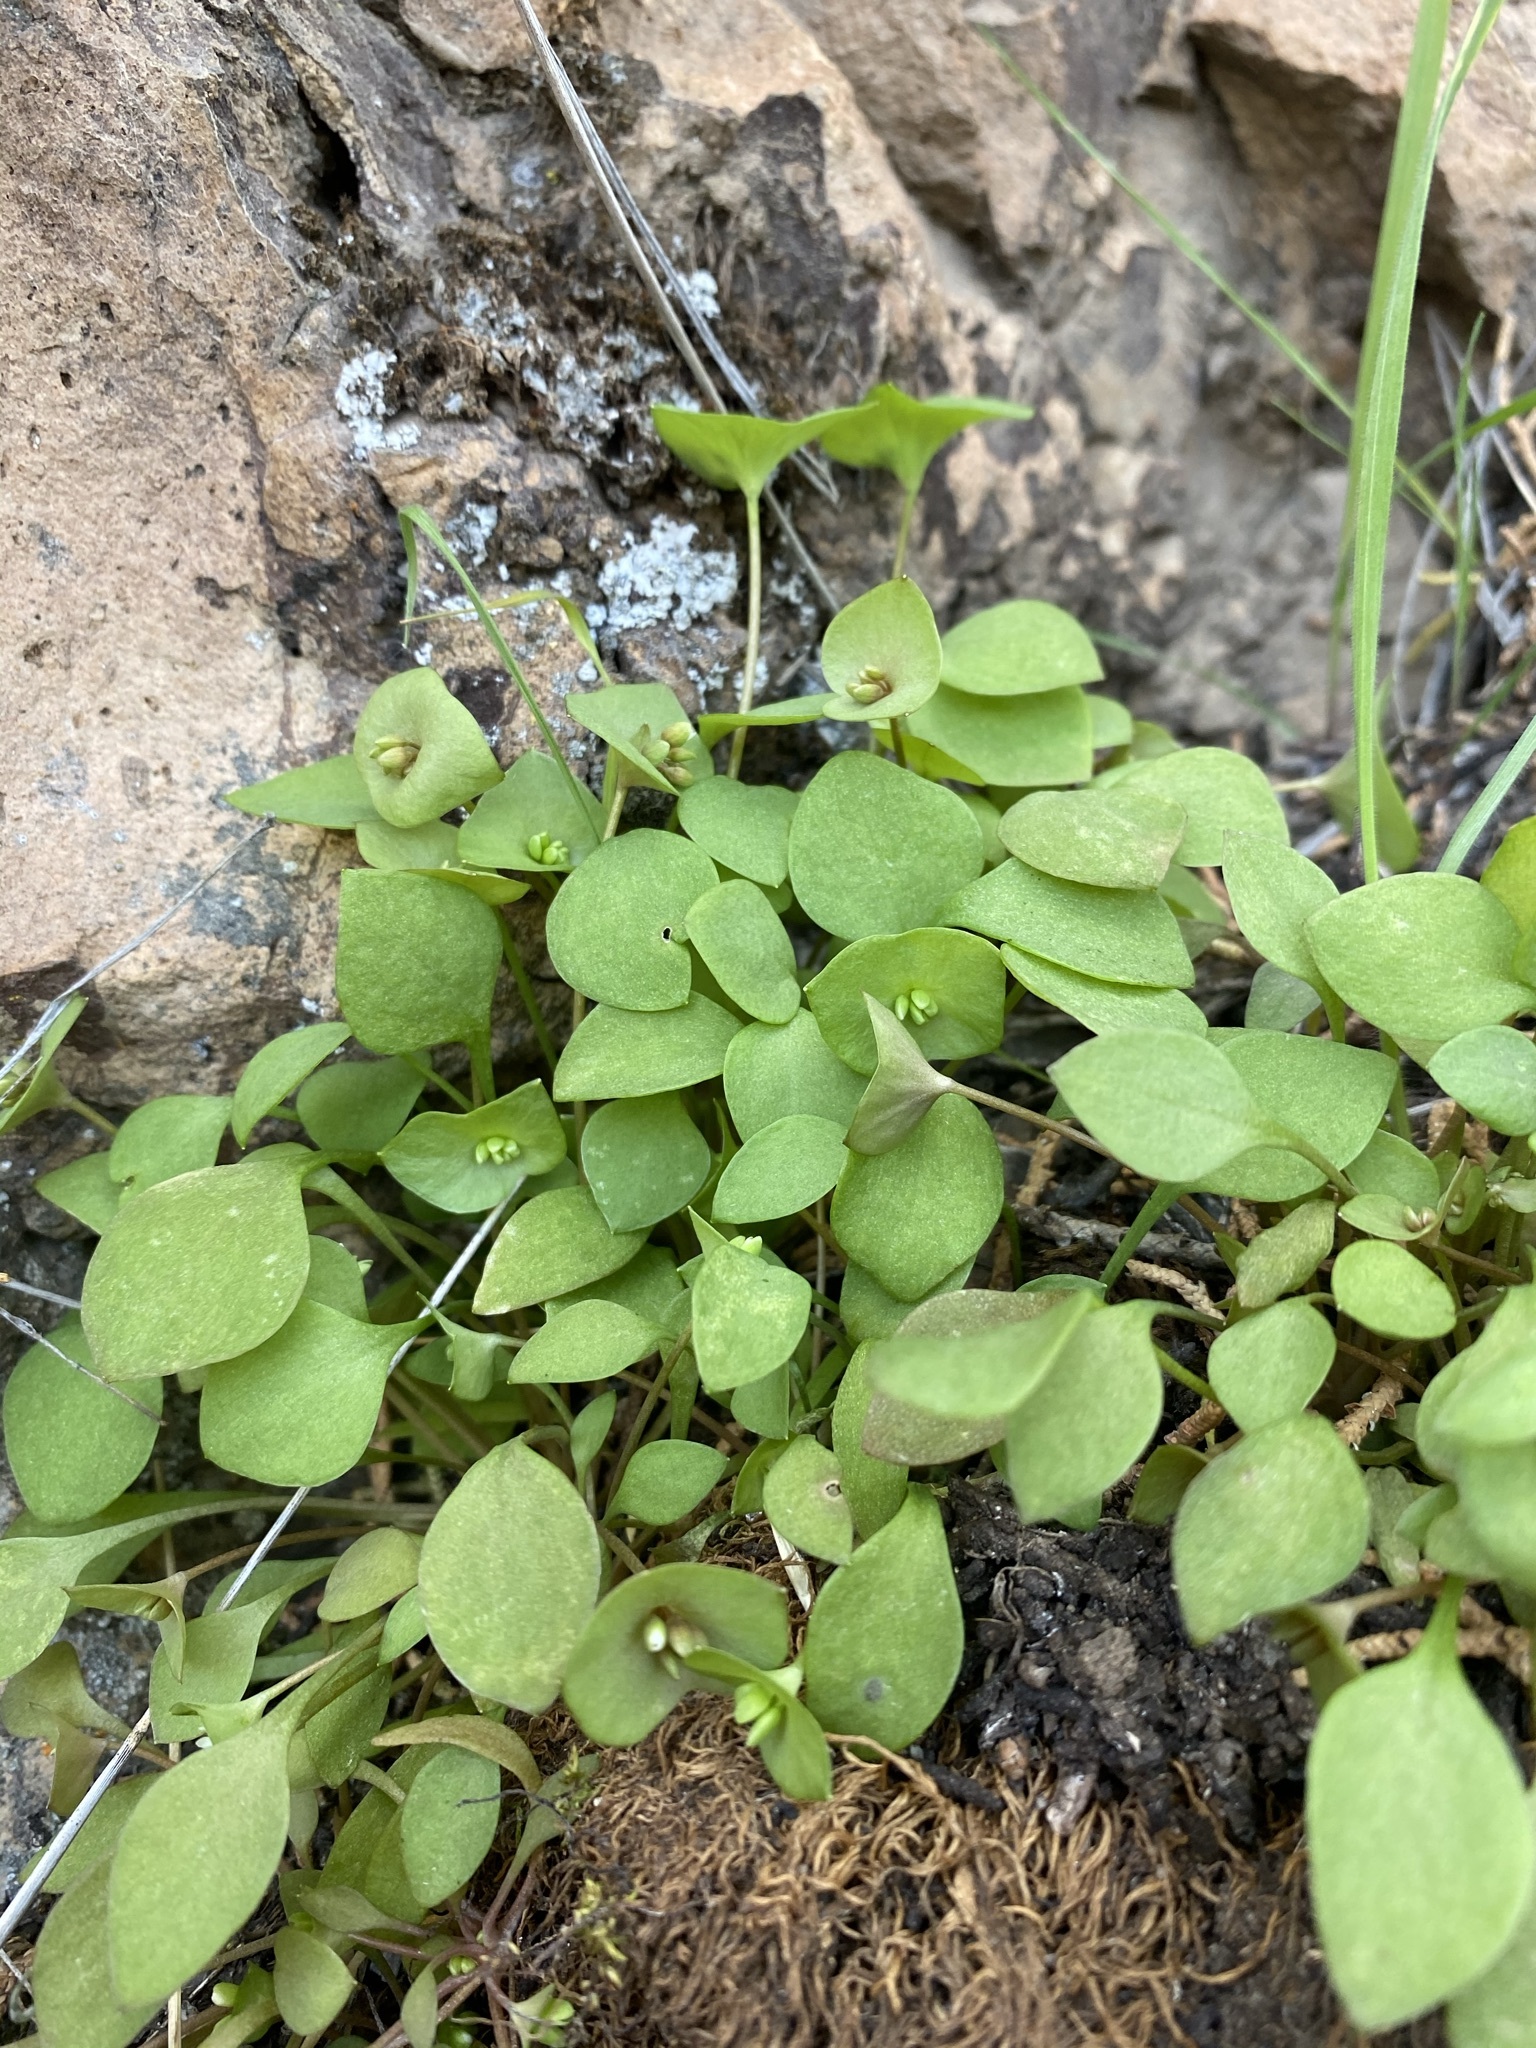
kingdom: Plantae
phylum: Tracheophyta
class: Magnoliopsida
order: Caryophyllales
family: Montiaceae
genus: Claytonia
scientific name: Claytonia perfoliata
